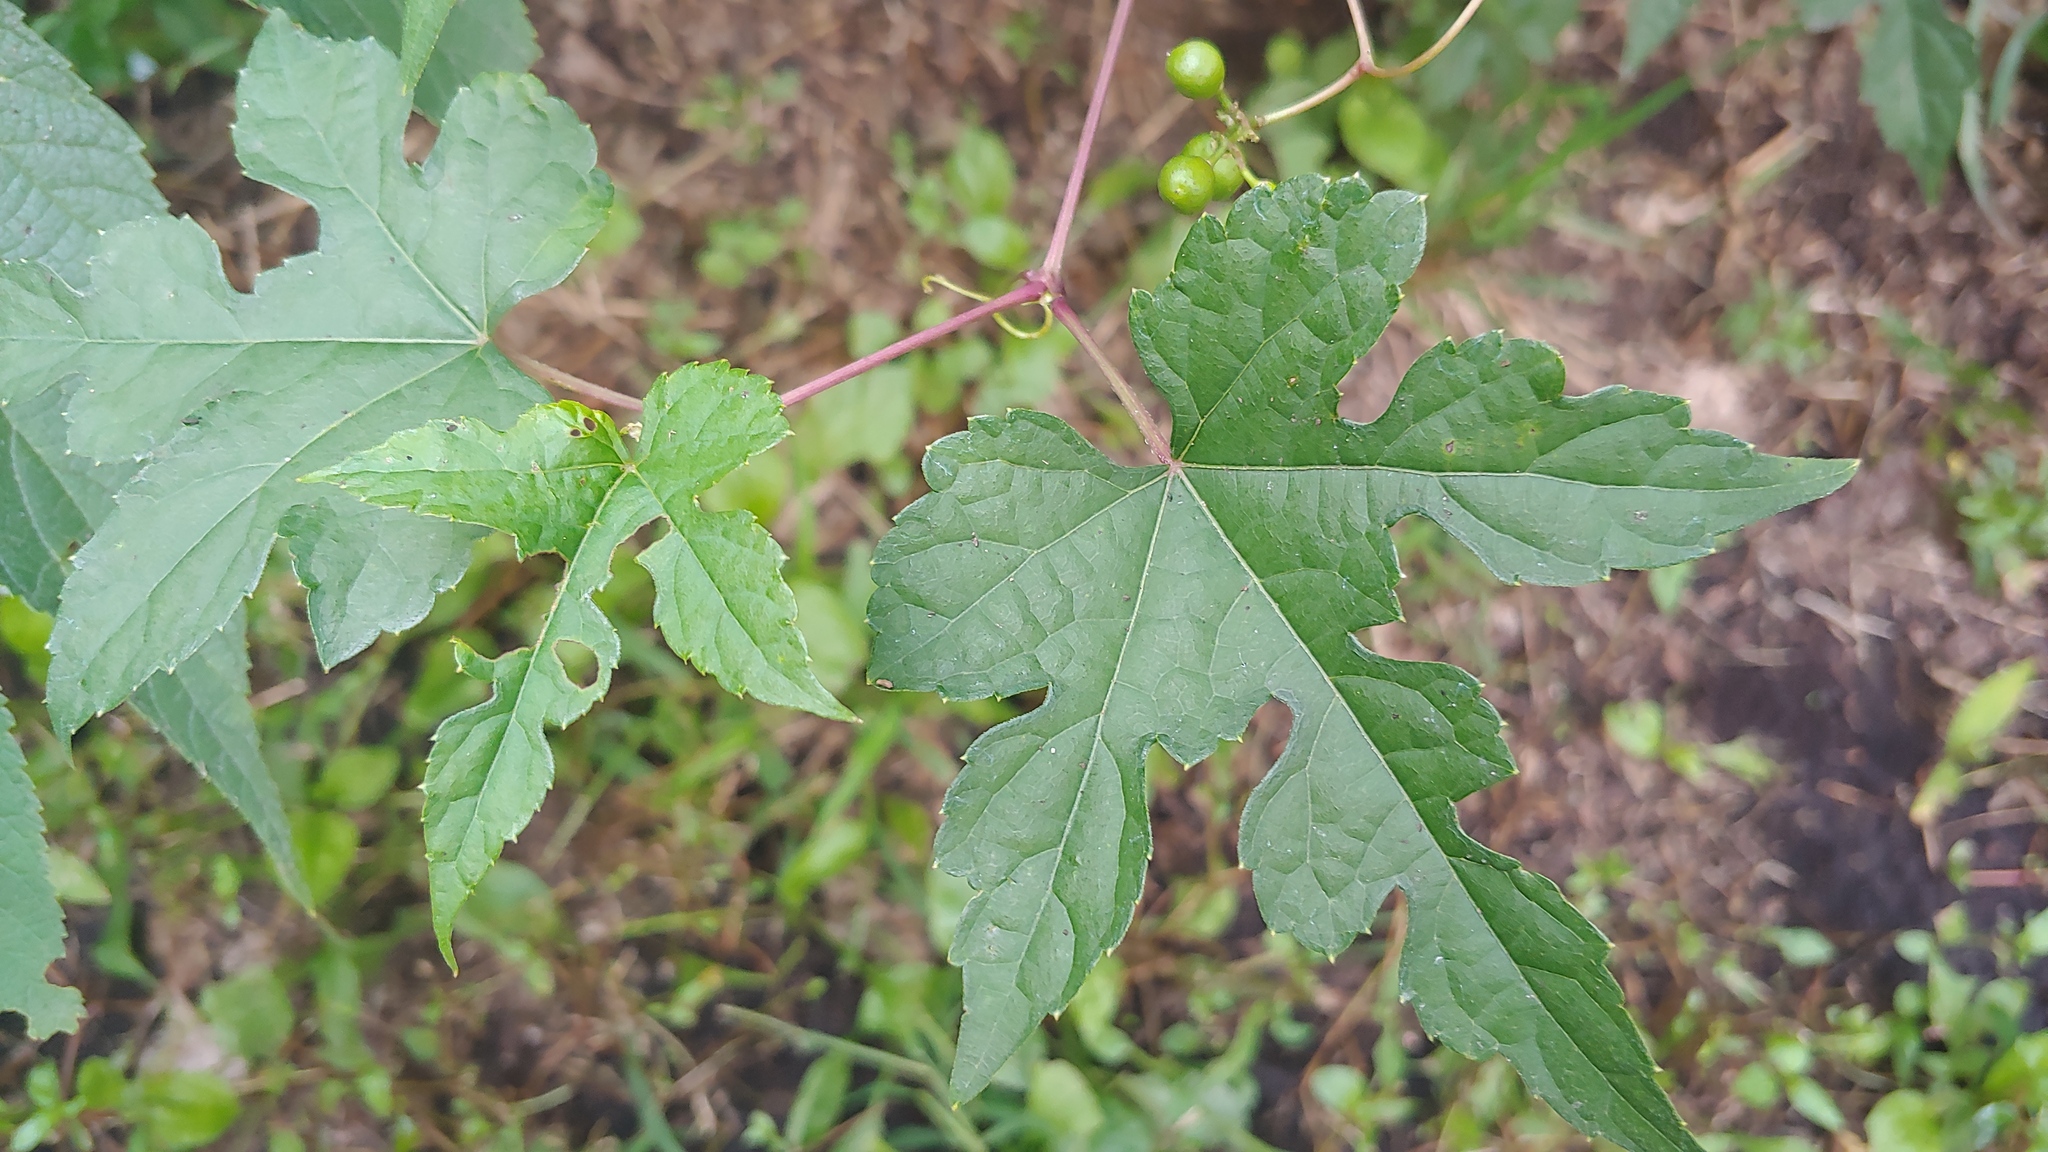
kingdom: Plantae
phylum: Tracheophyta
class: Magnoliopsida
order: Vitales
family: Vitaceae
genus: Ampelopsis
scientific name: Ampelopsis glandulosa
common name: Amur peppervine
